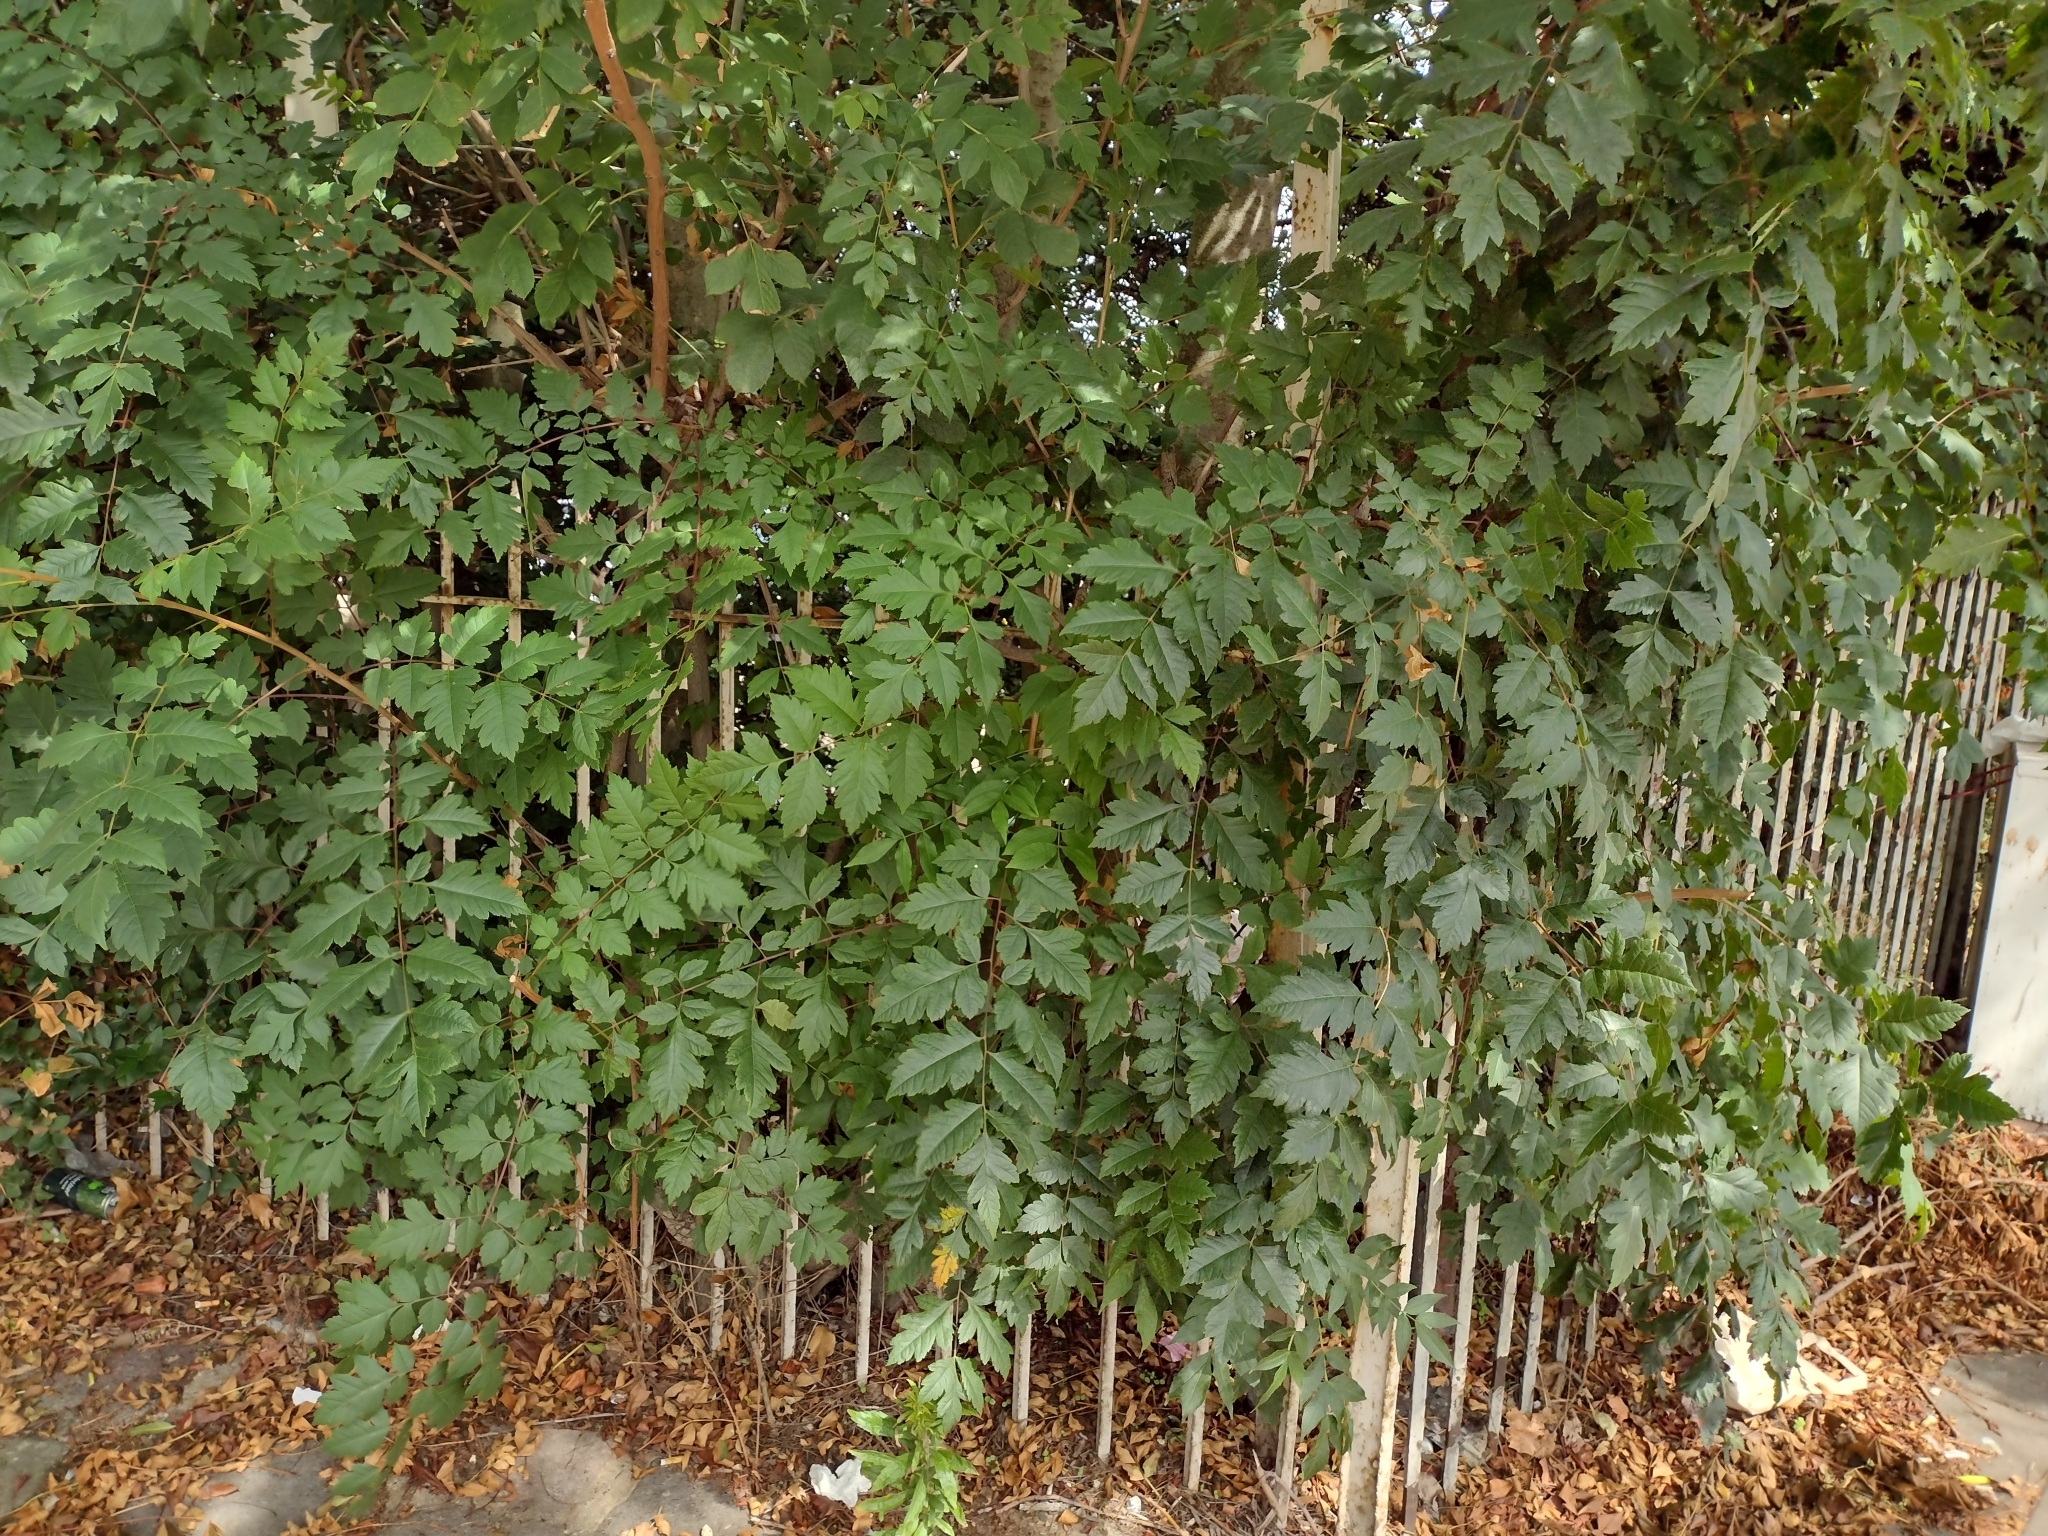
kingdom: Plantae
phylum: Tracheophyta
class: Magnoliopsida
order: Sapindales
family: Sapindaceae
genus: Koelreuteria
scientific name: Koelreuteria paniculata
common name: Pride-of-india
